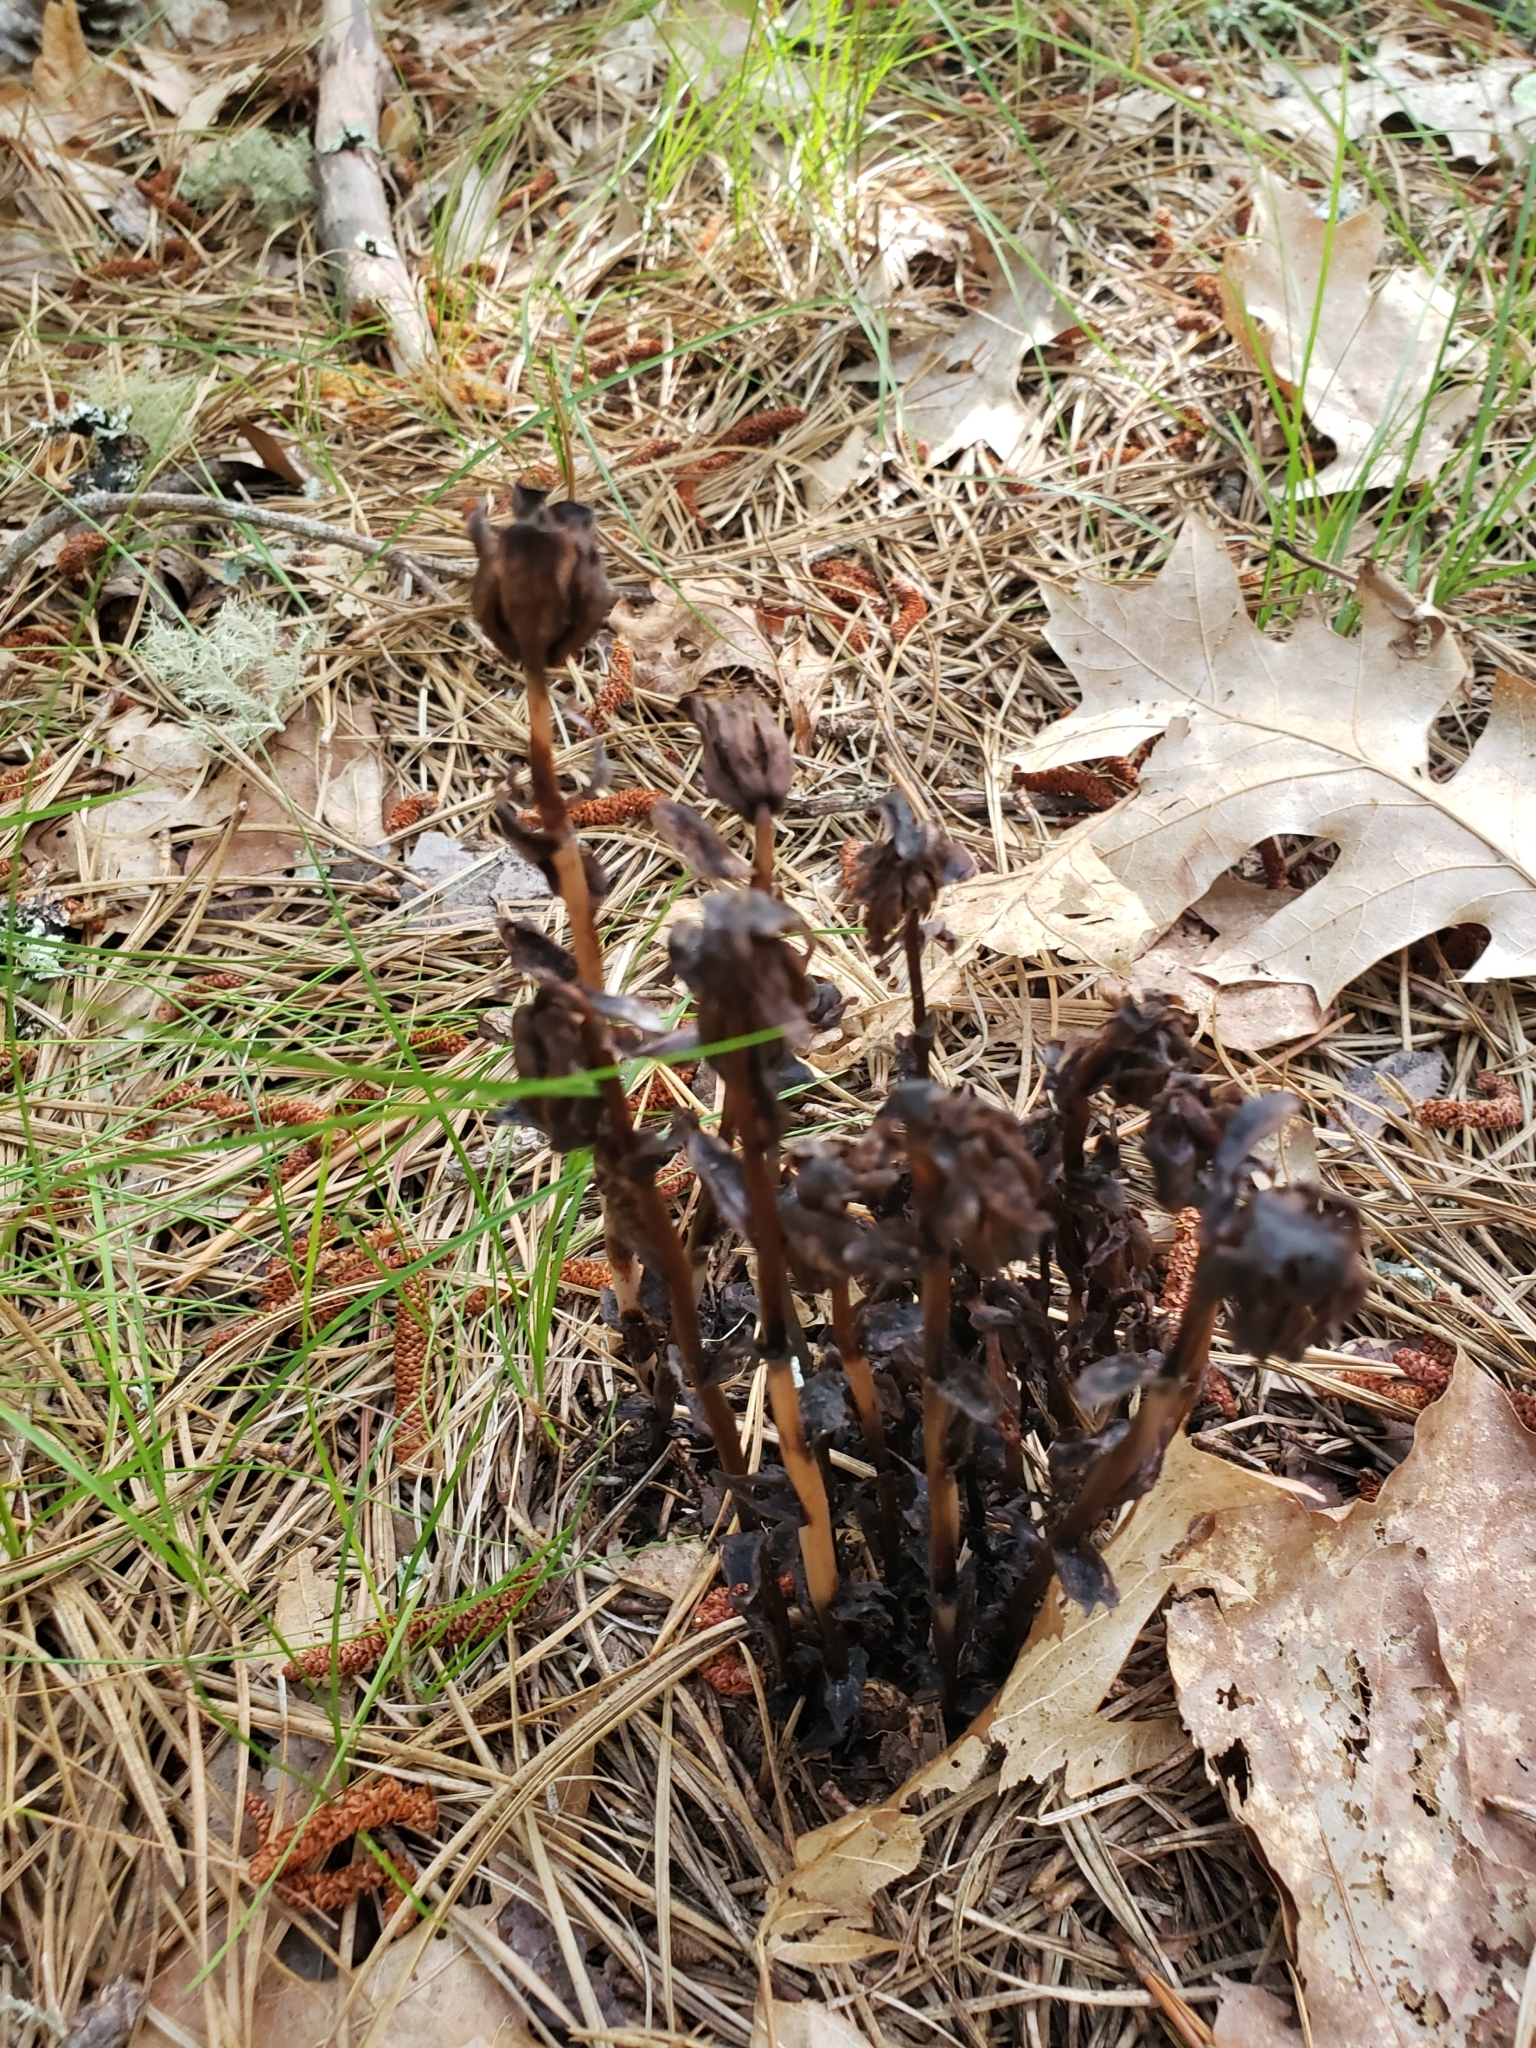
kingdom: Plantae
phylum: Tracheophyta
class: Magnoliopsida
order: Ericales
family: Ericaceae
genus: Monotropa
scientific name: Monotropa uniflora
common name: Convulsion root
